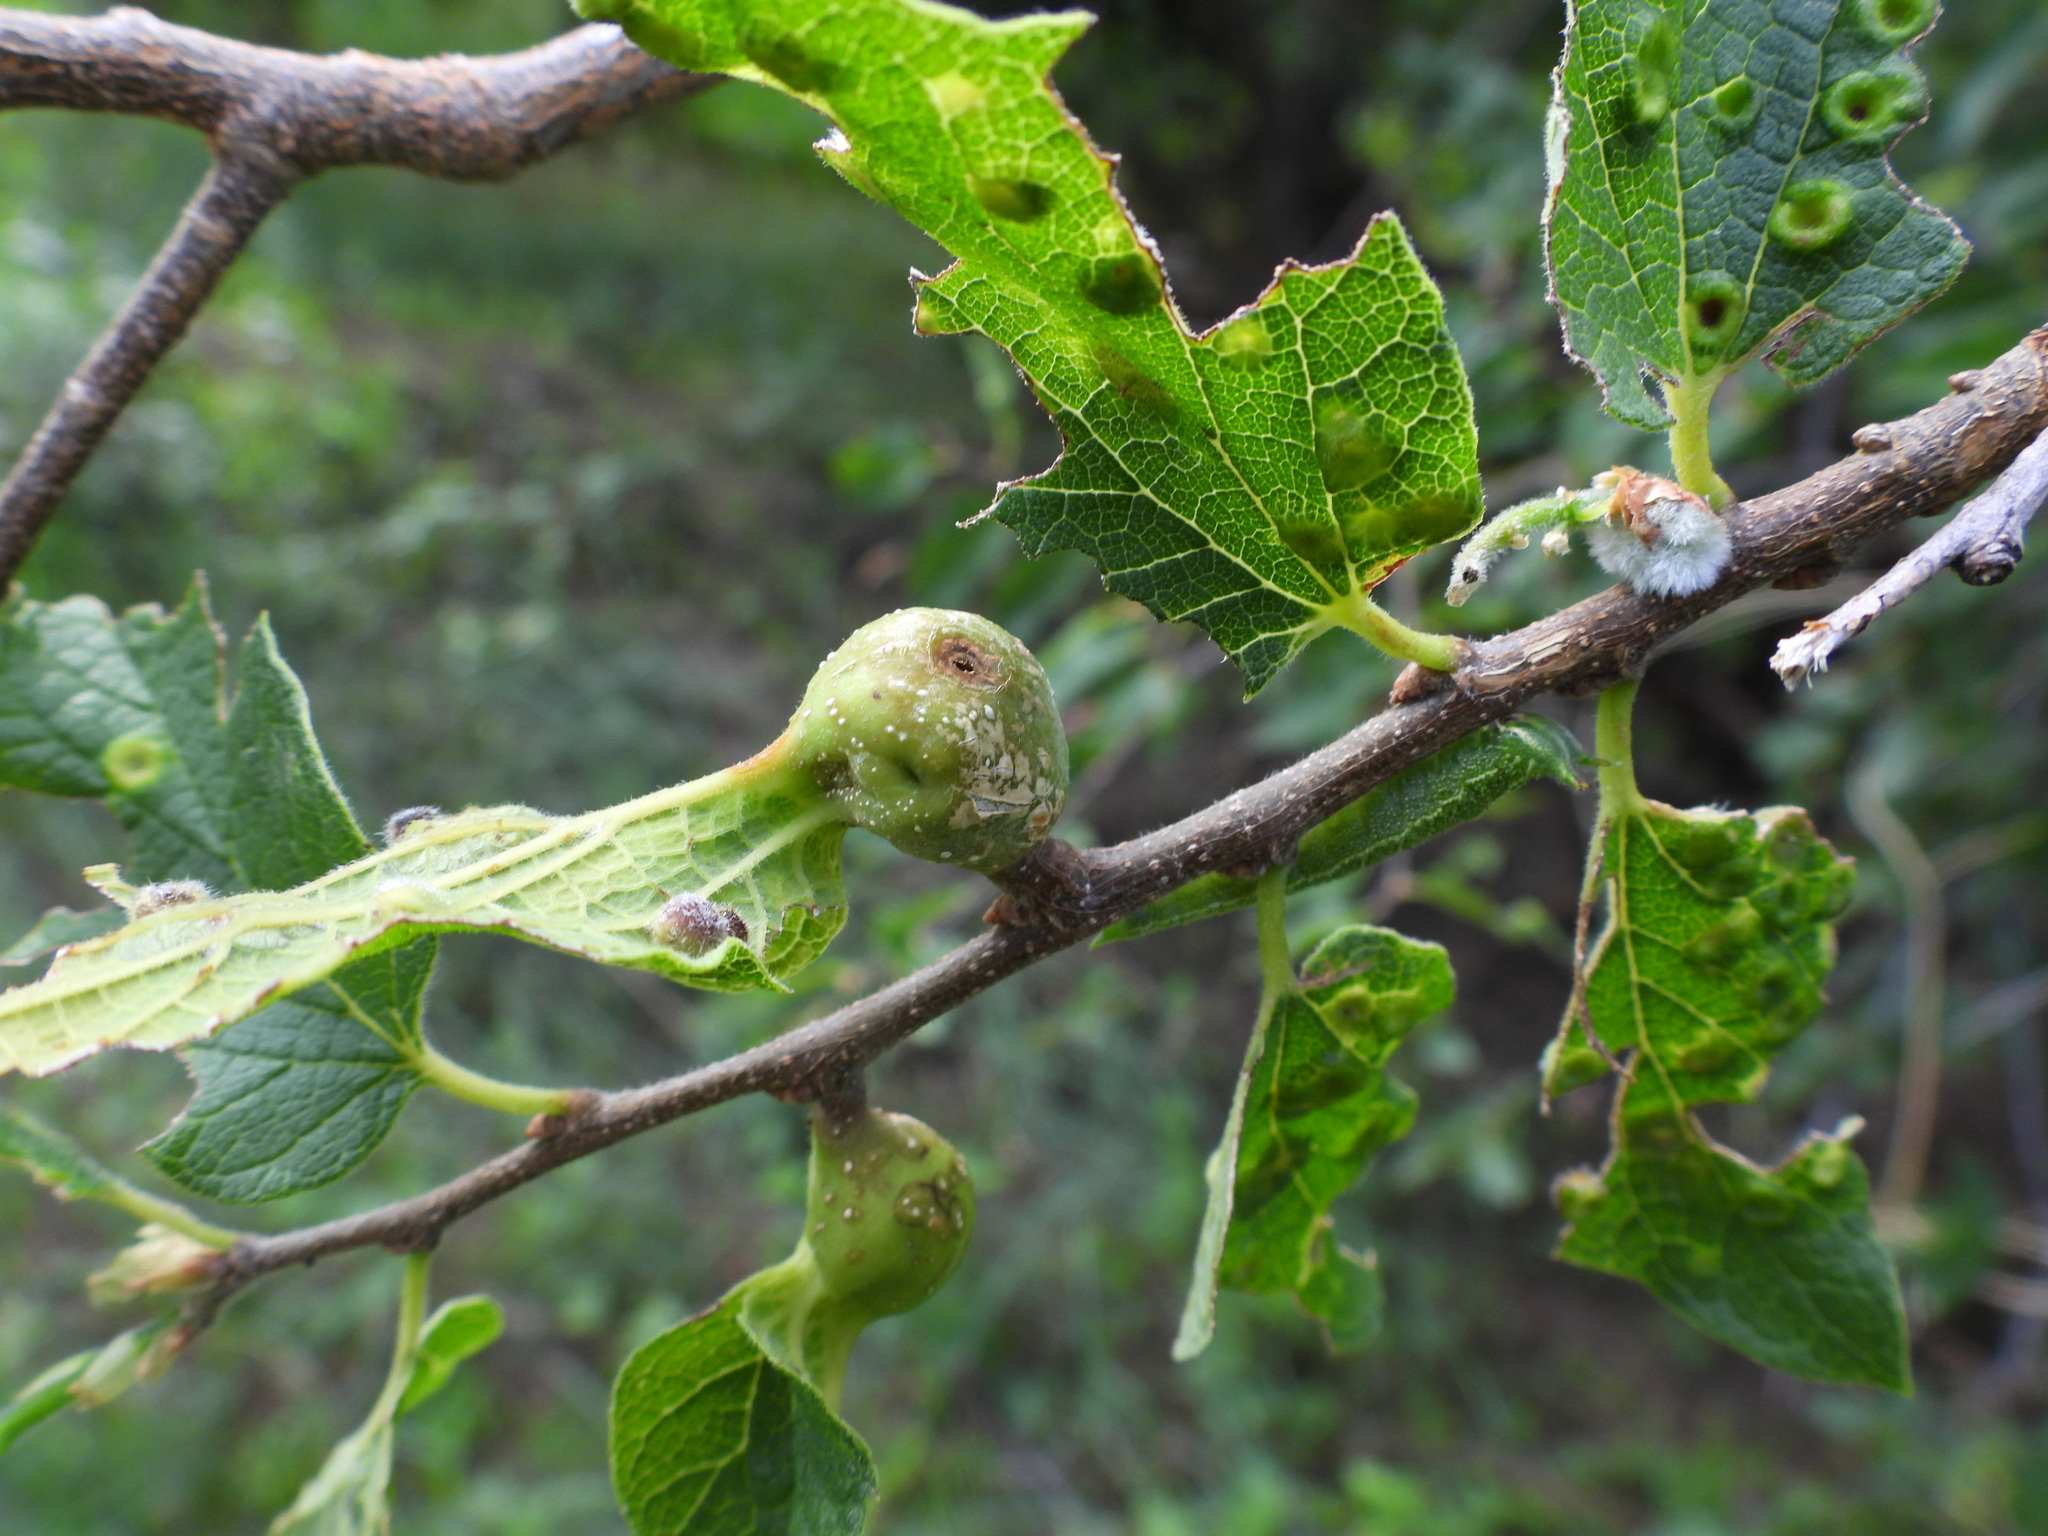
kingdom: Animalia
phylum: Arthropoda
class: Insecta
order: Hemiptera
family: Aphalaridae
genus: Pachypsylla
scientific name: Pachypsylla venusta
